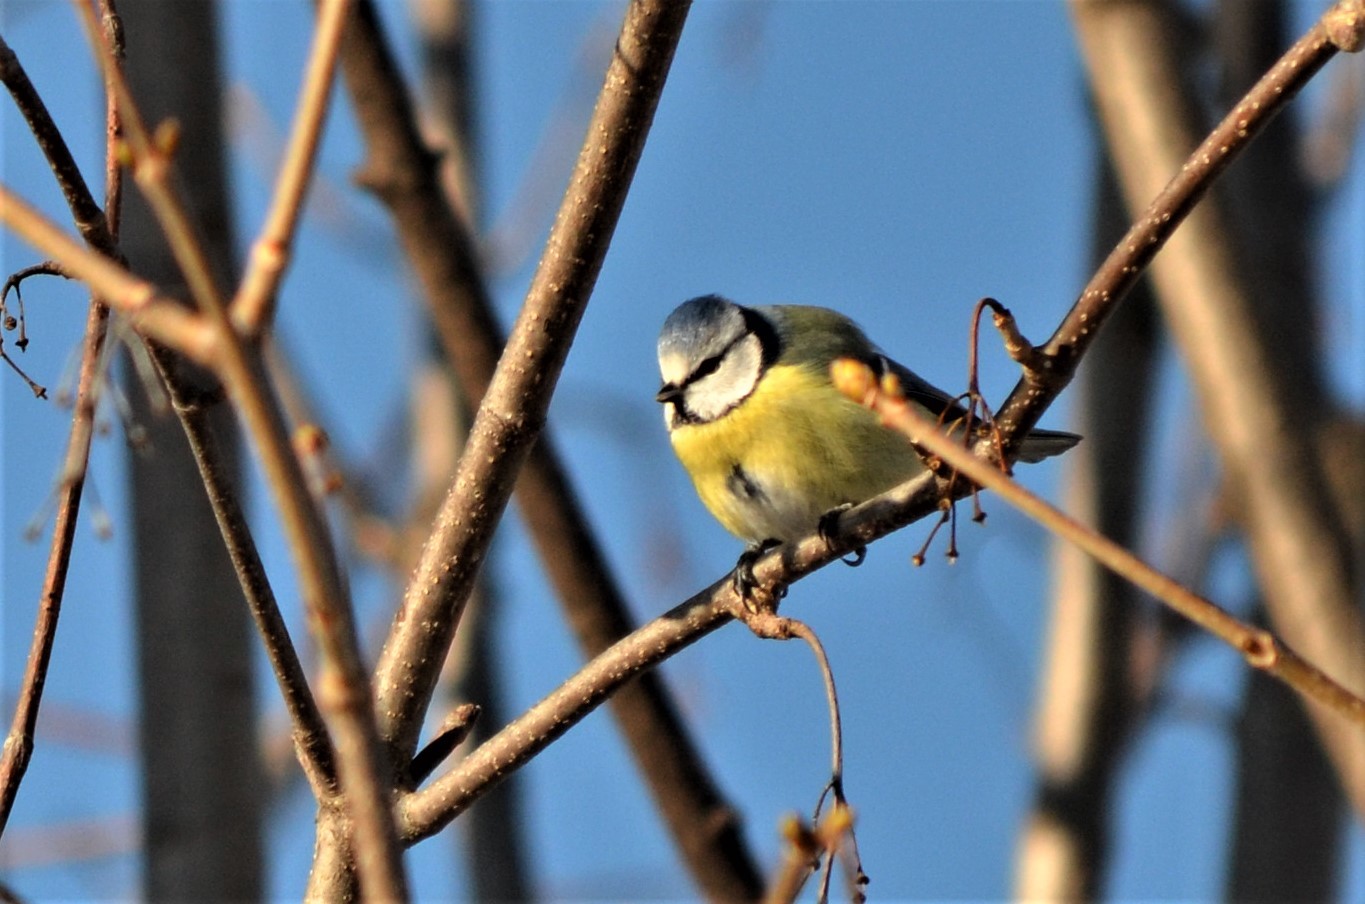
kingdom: Animalia
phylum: Chordata
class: Aves
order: Passeriformes
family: Paridae
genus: Cyanistes
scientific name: Cyanistes caeruleus
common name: Eurasian blue tit
